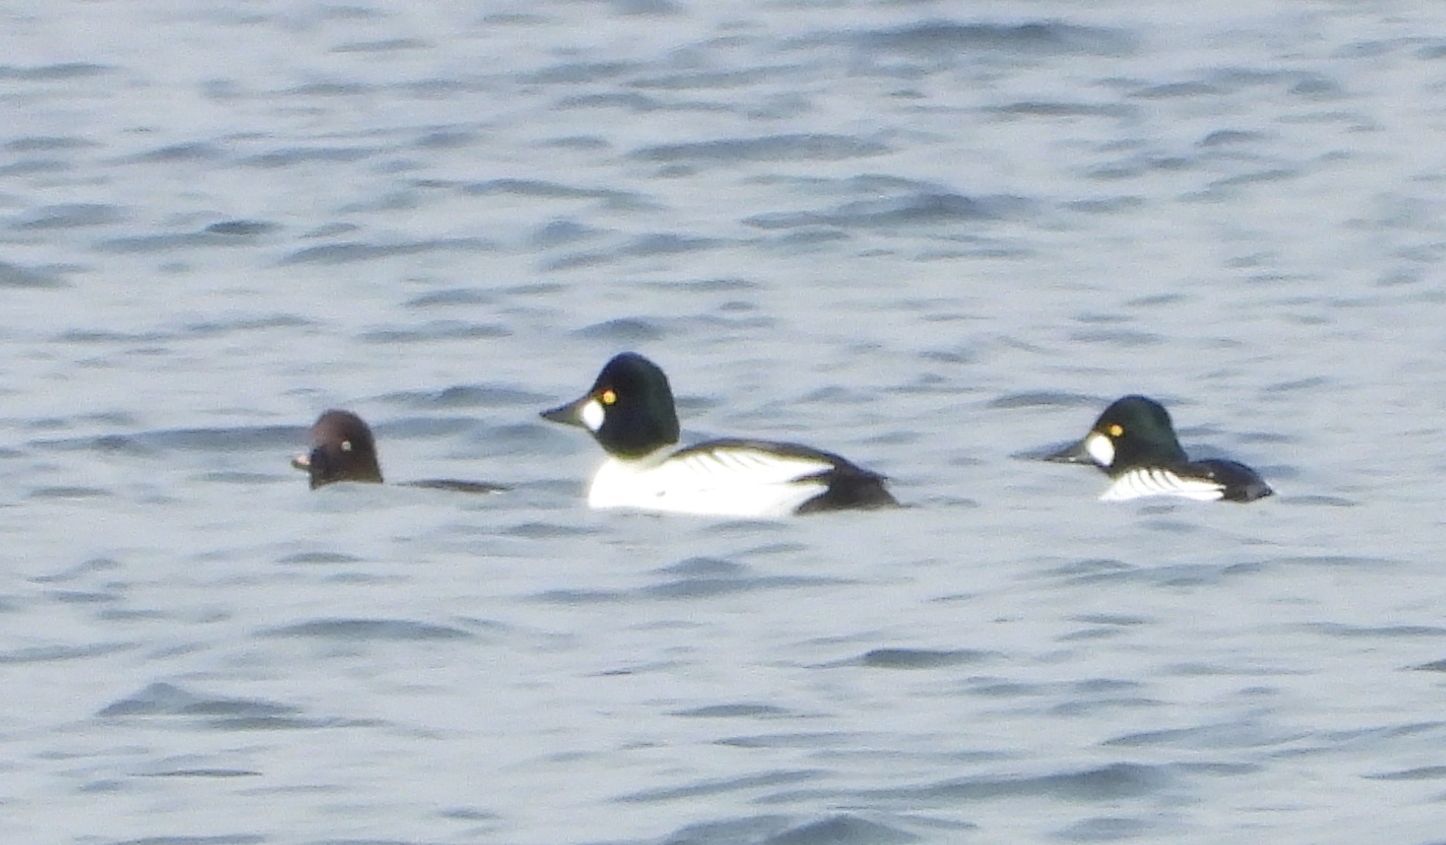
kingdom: Animalia
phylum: Chordata
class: Aves
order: Anseriformes
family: Anatidae
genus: Bucephala
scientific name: Bucephala clangula
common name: Common goldeneye
